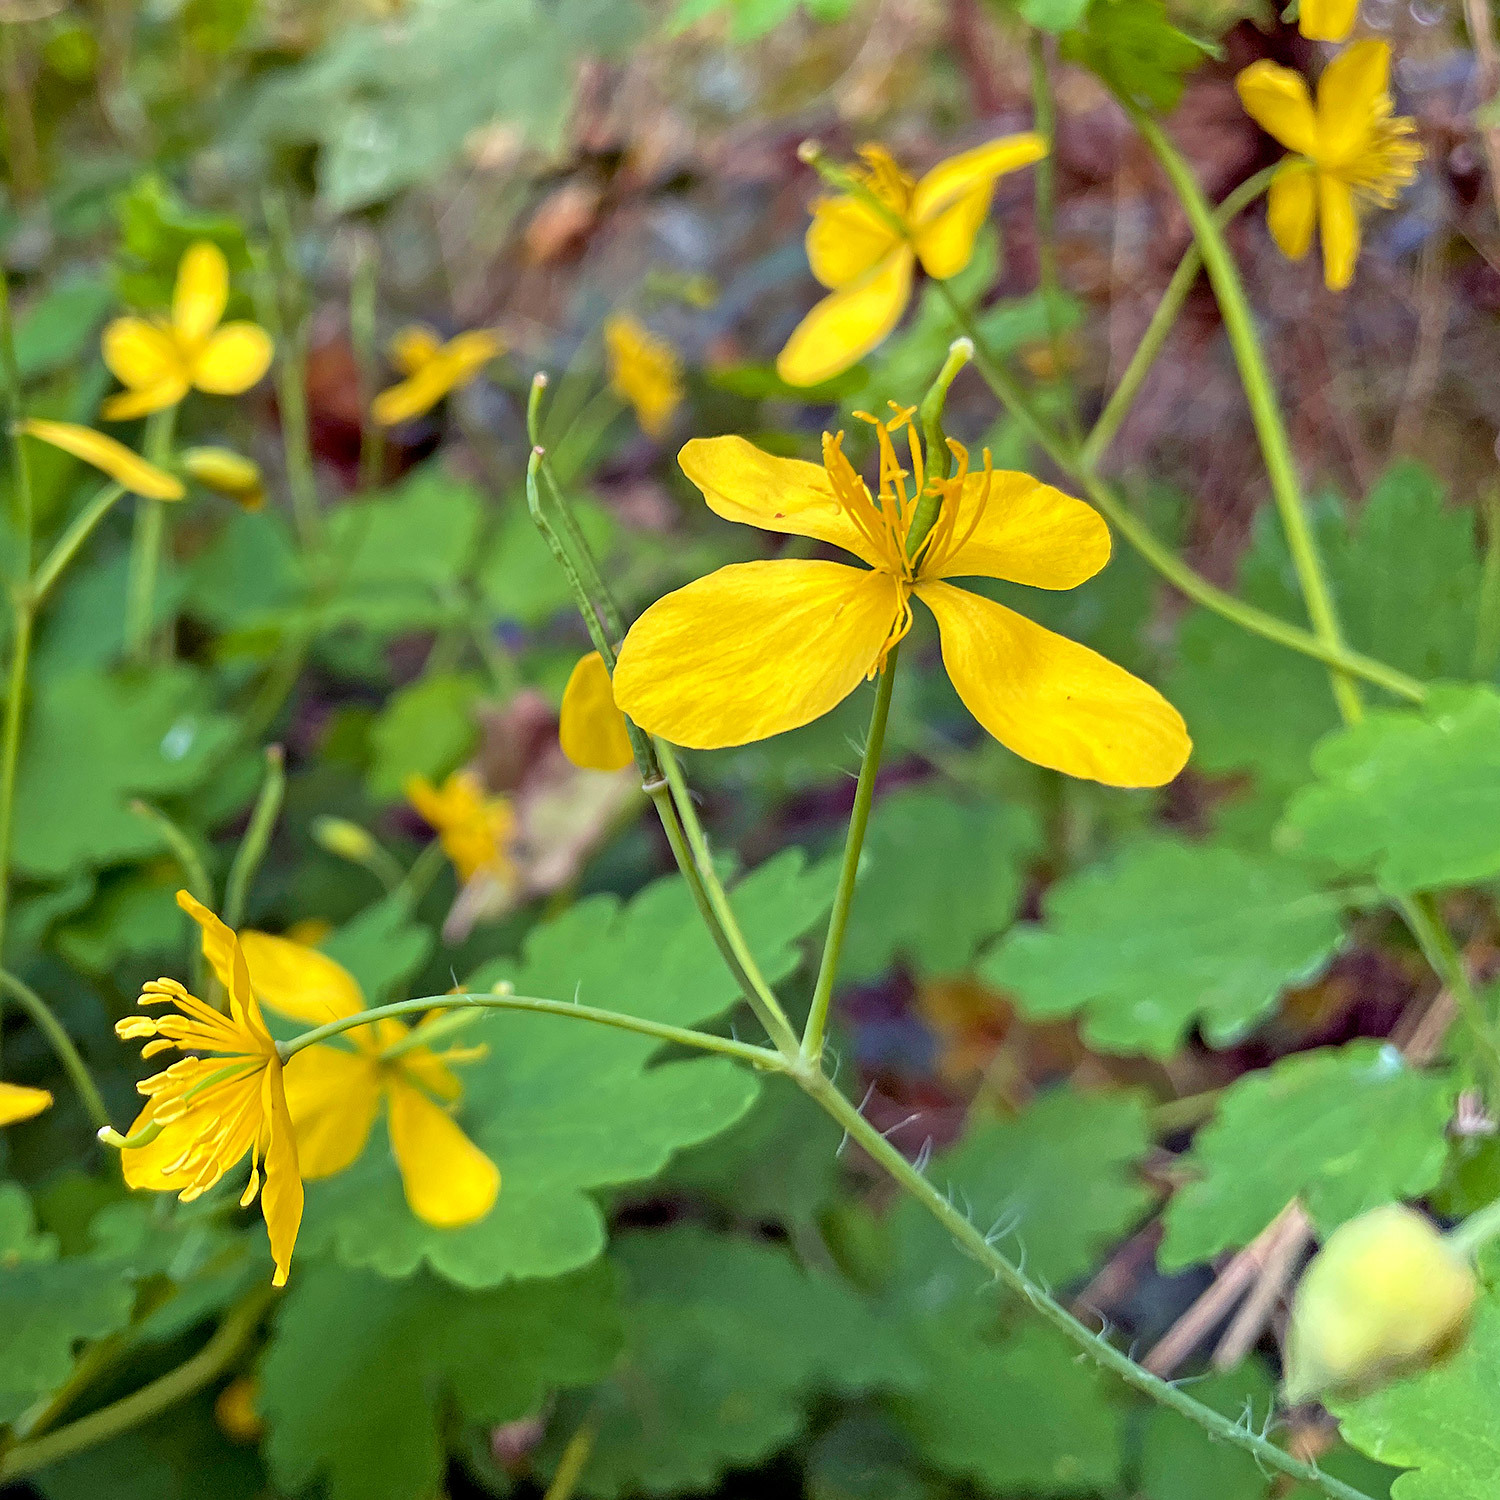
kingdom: Plantae
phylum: Tracheophyta
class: Magnoliopsida
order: Ranunculales
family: Papaveraceae
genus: Chelidonium
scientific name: Chelidonium majus
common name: Greater celandine
